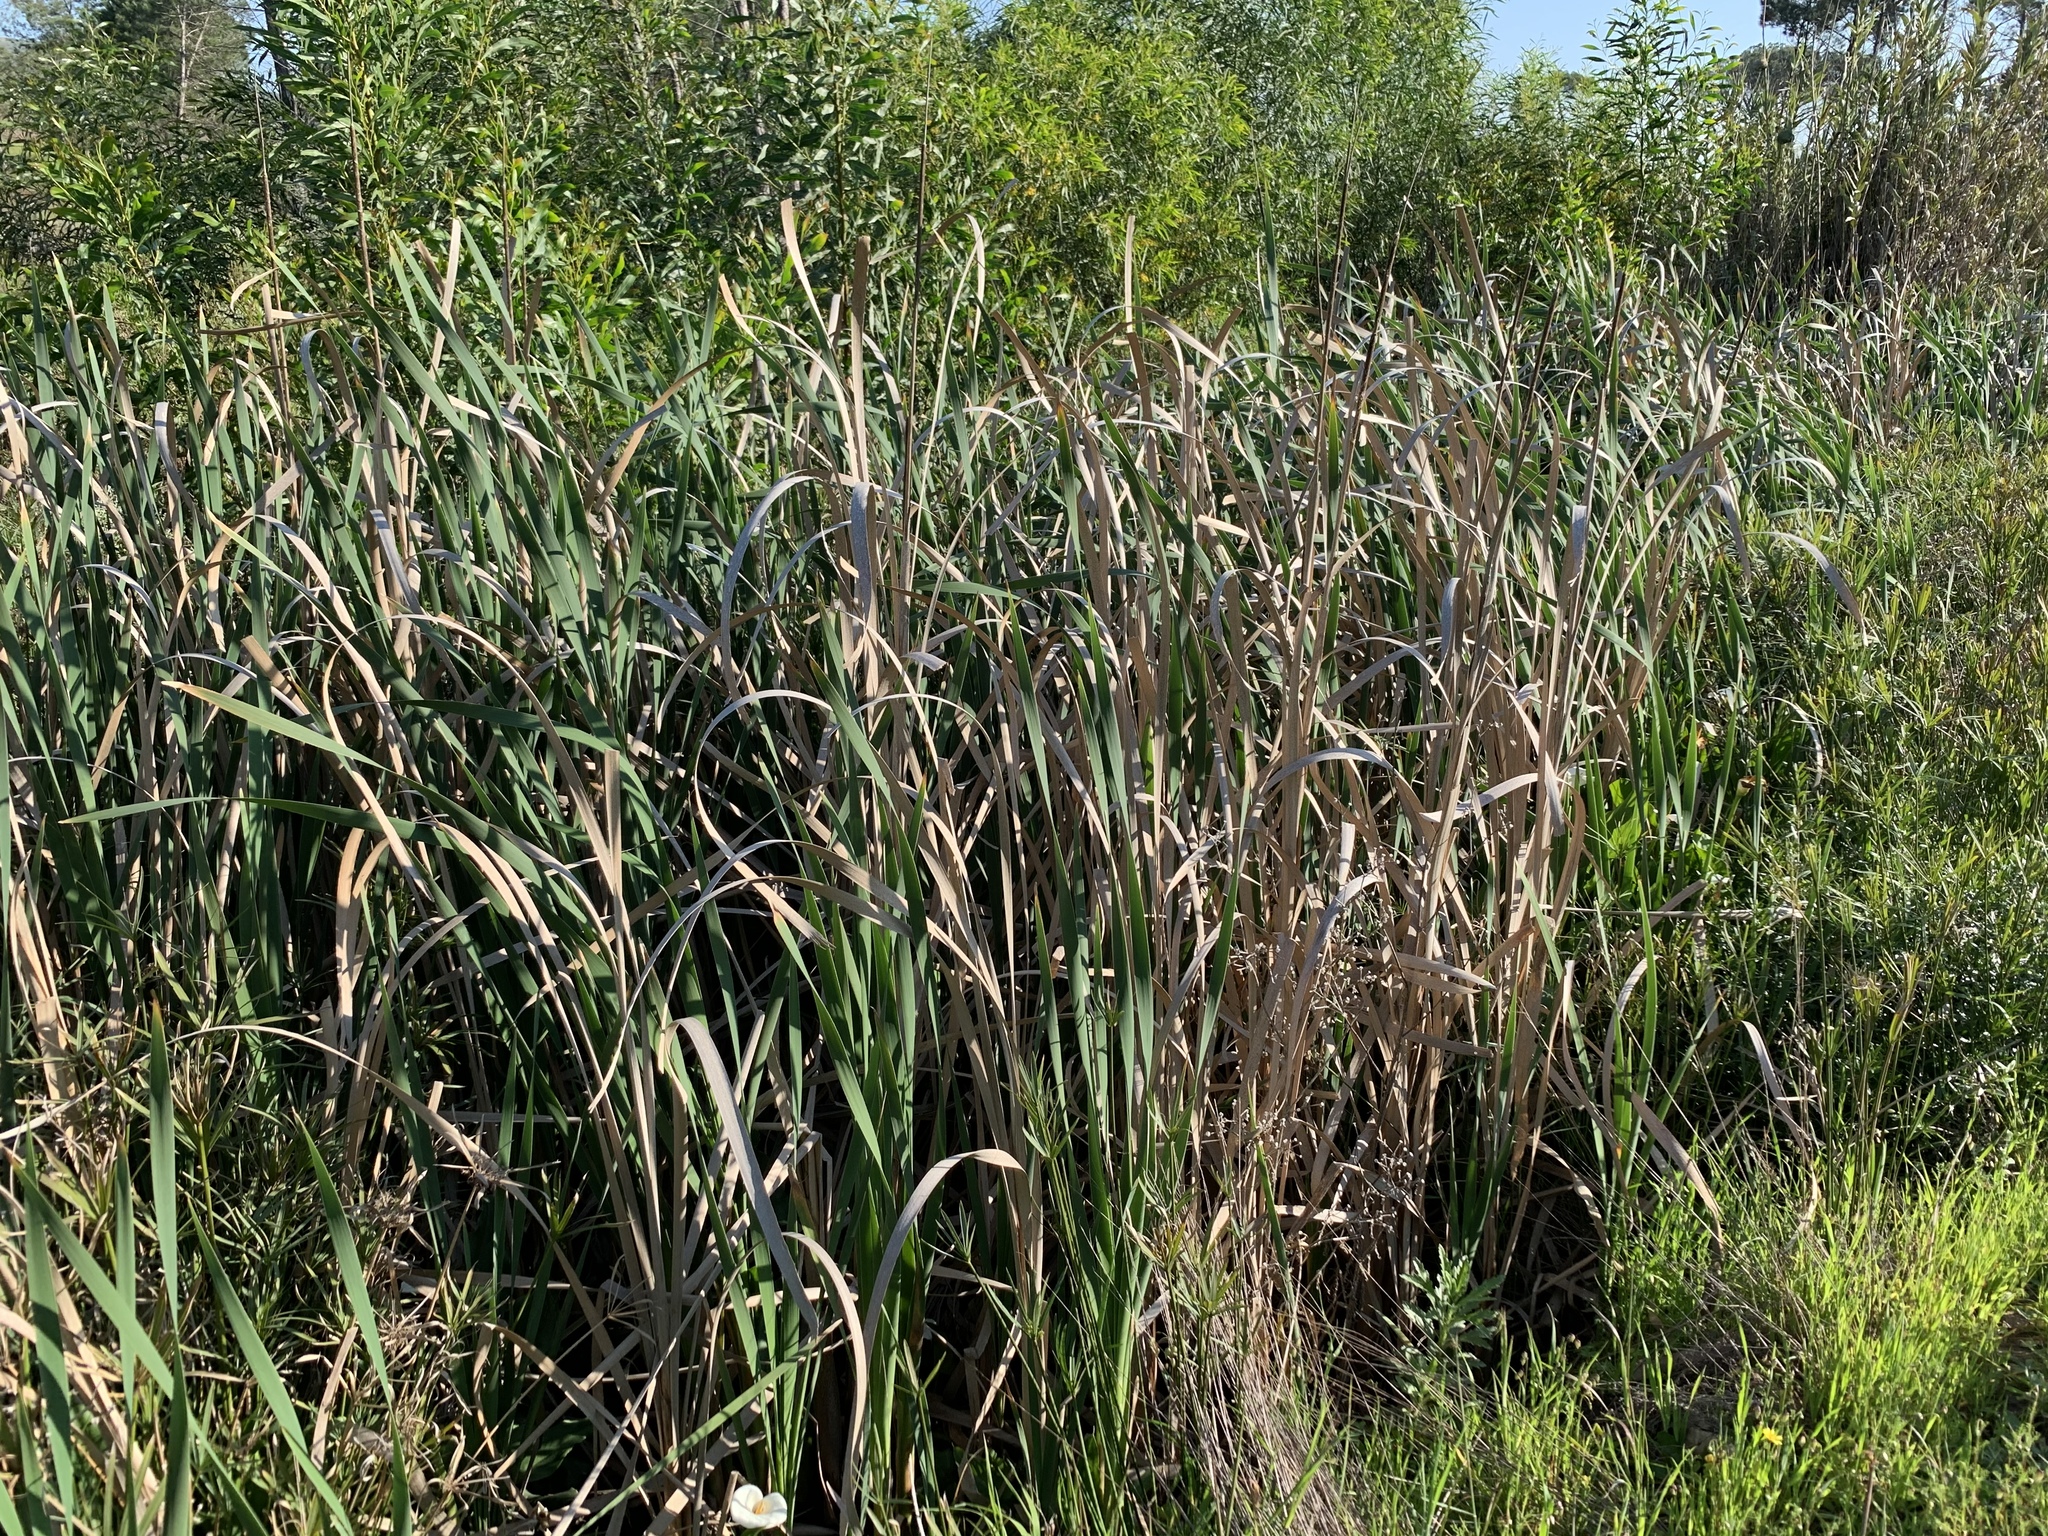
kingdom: Plantae
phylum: Tracheophyta
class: Liliopsida
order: Poales
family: Typhaceae
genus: Typha
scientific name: Typha capensis
